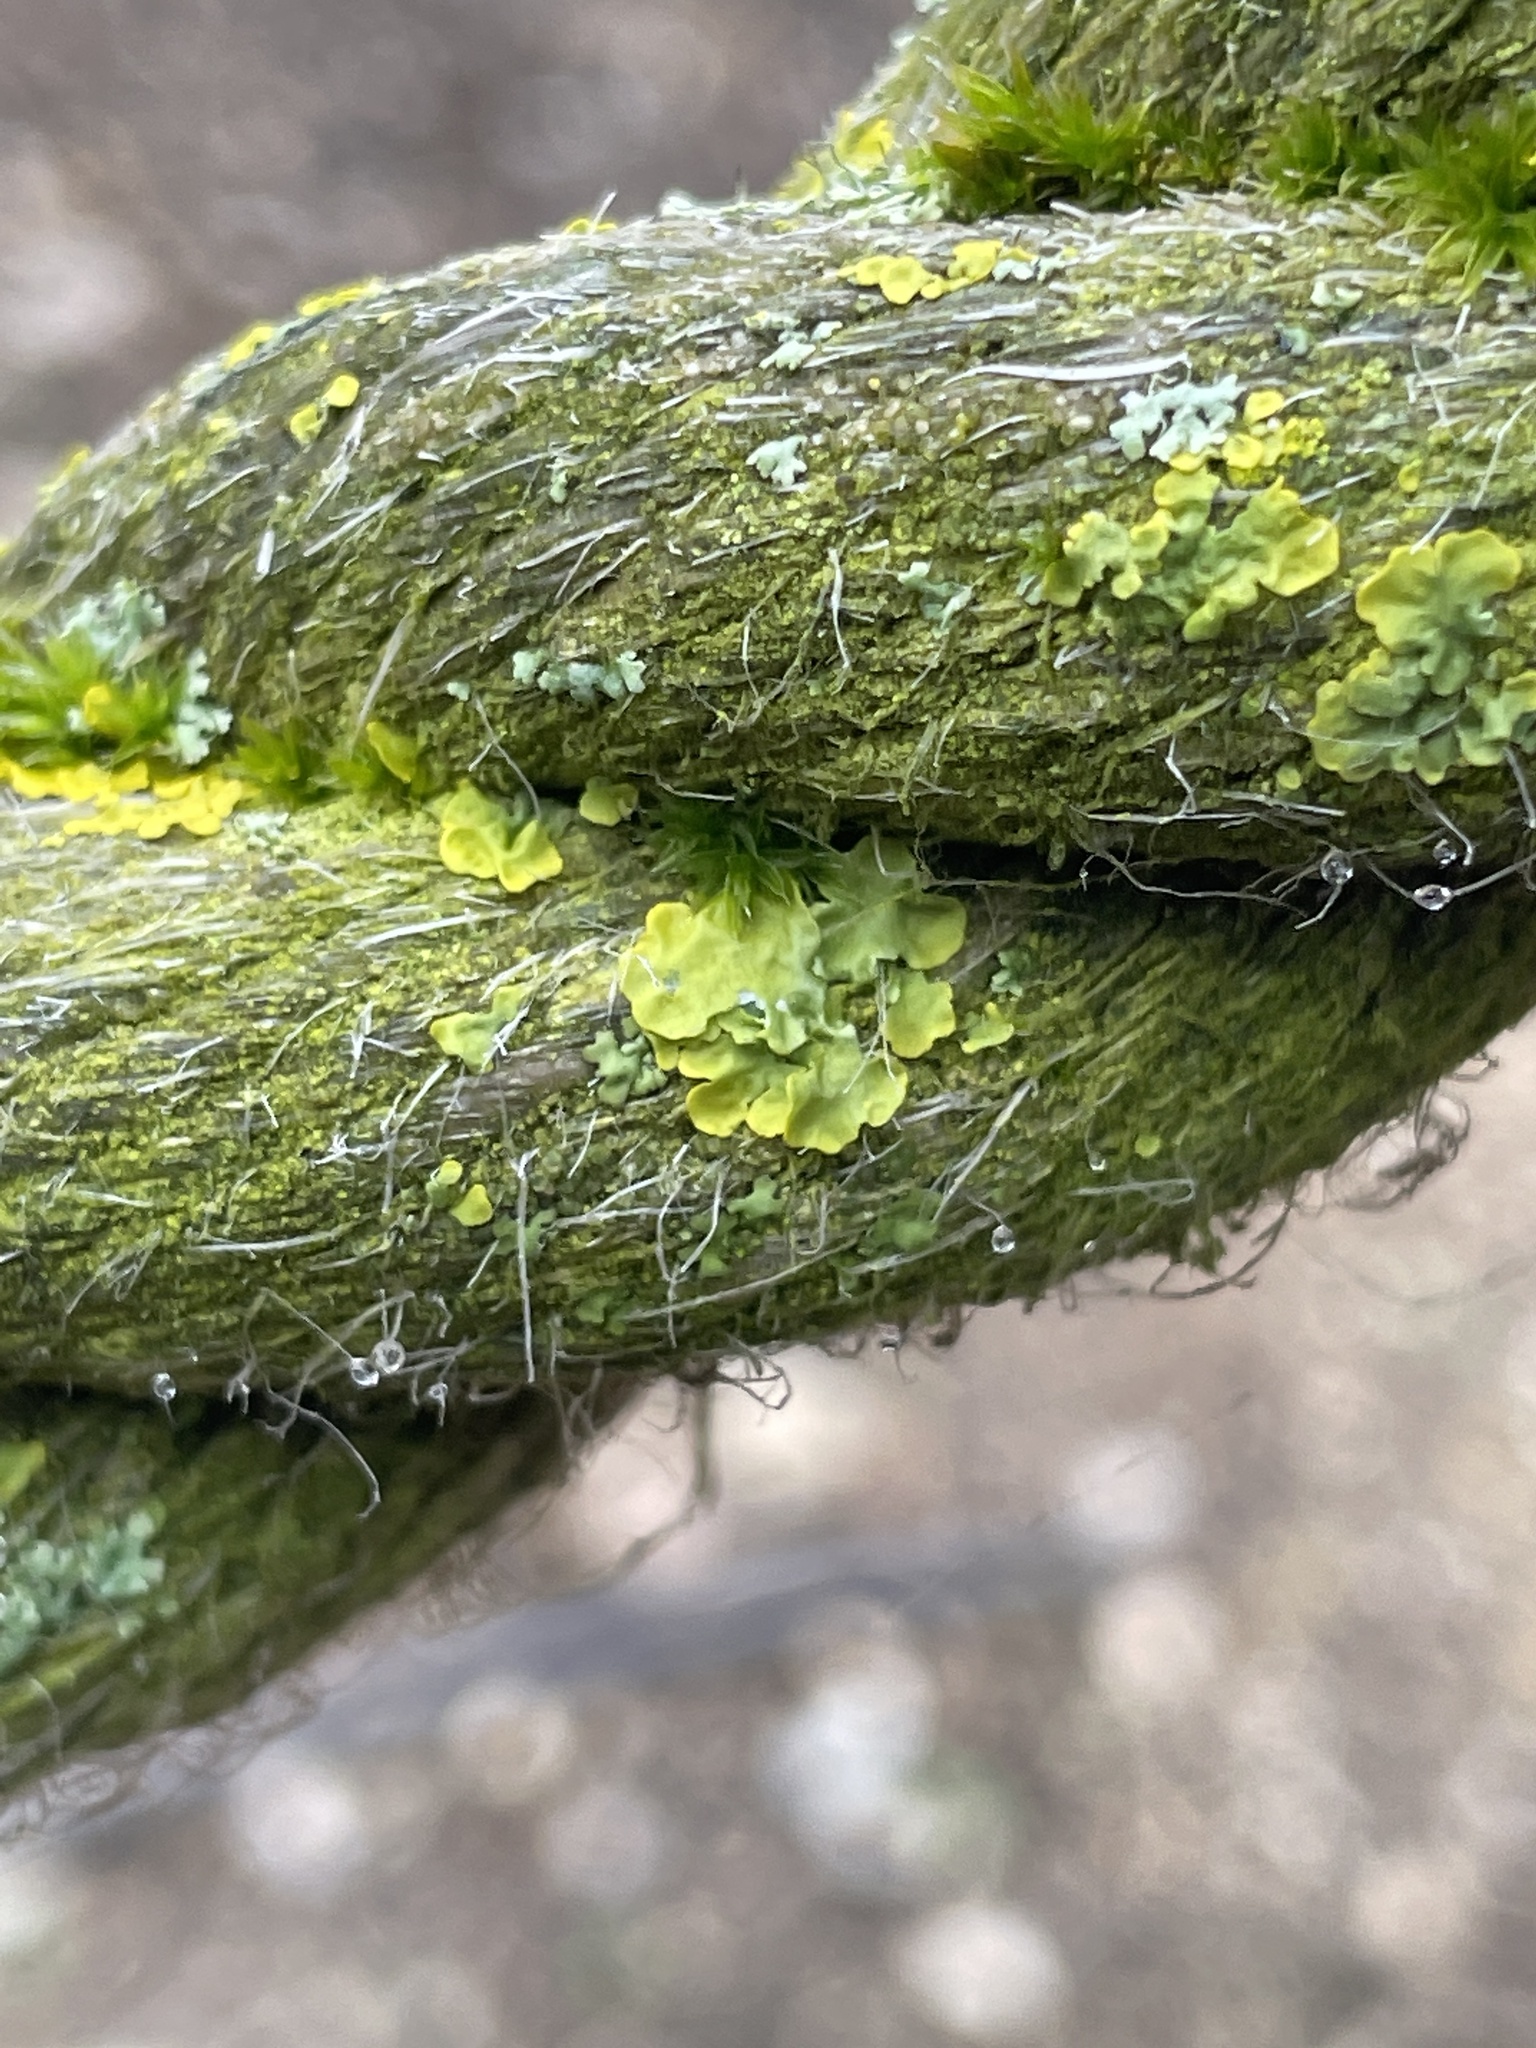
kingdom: Fungi
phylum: Ascomycota
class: Lecanoromycetes
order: Teloschistales
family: Teloschistaceae
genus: Xanthoria
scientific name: Xanthoria parietina
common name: Common orange lichen
